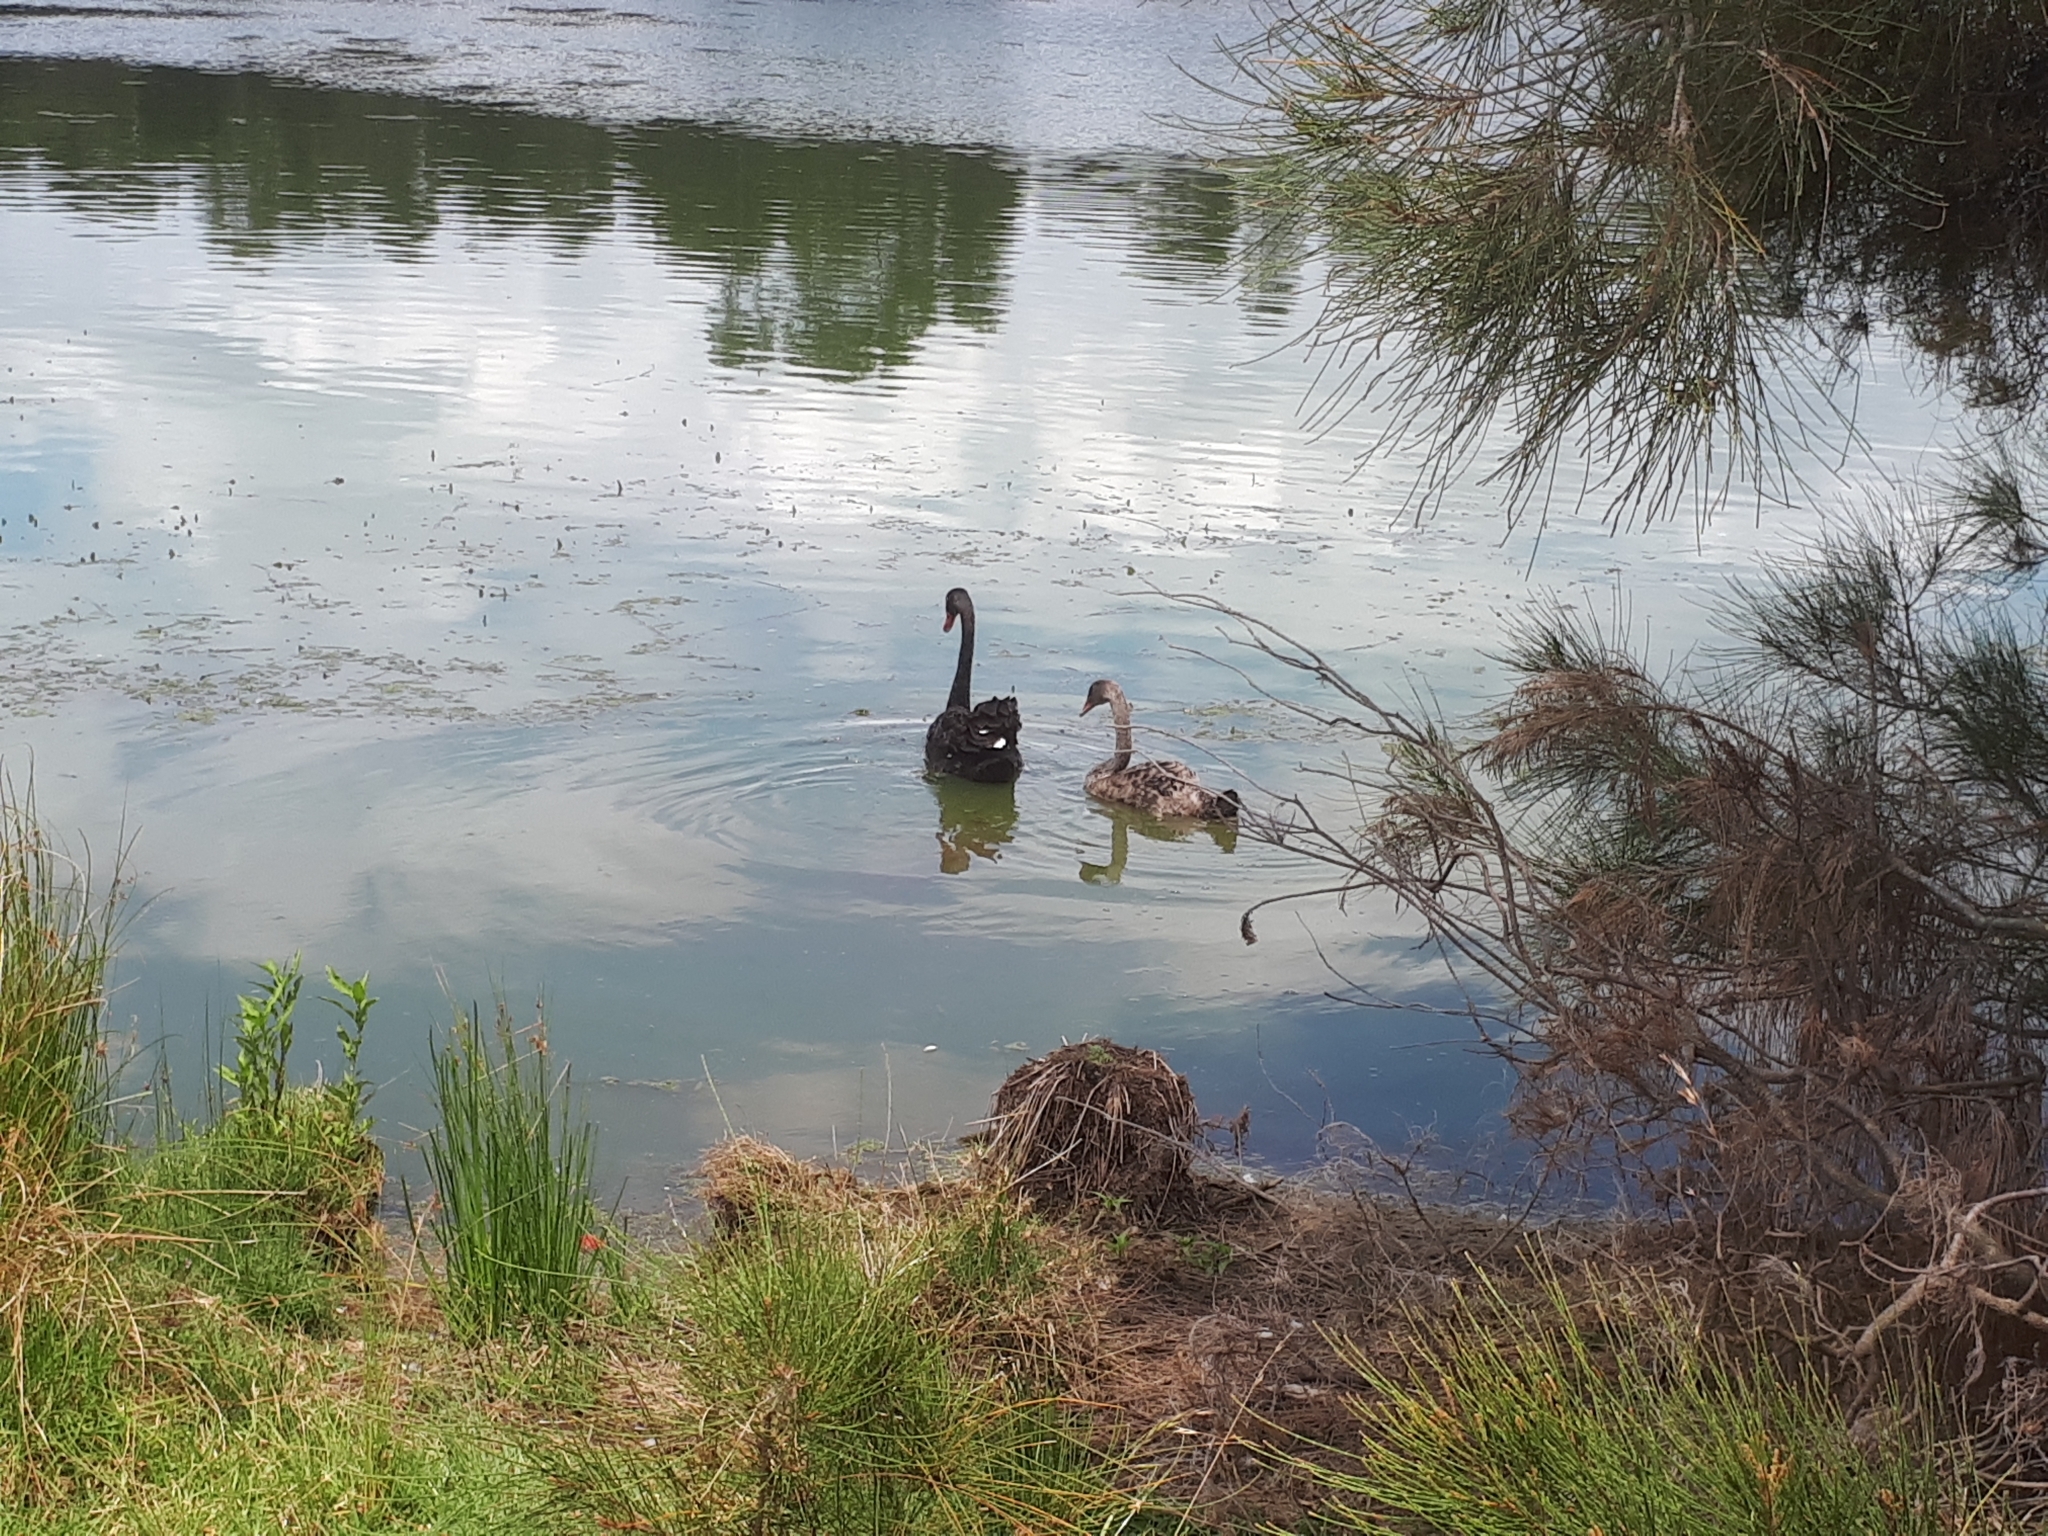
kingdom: Animalia
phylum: Chordata
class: Aves
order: Anseriformes
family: Anatidae
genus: Cygnus
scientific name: Cygnus atratus
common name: Black swan
